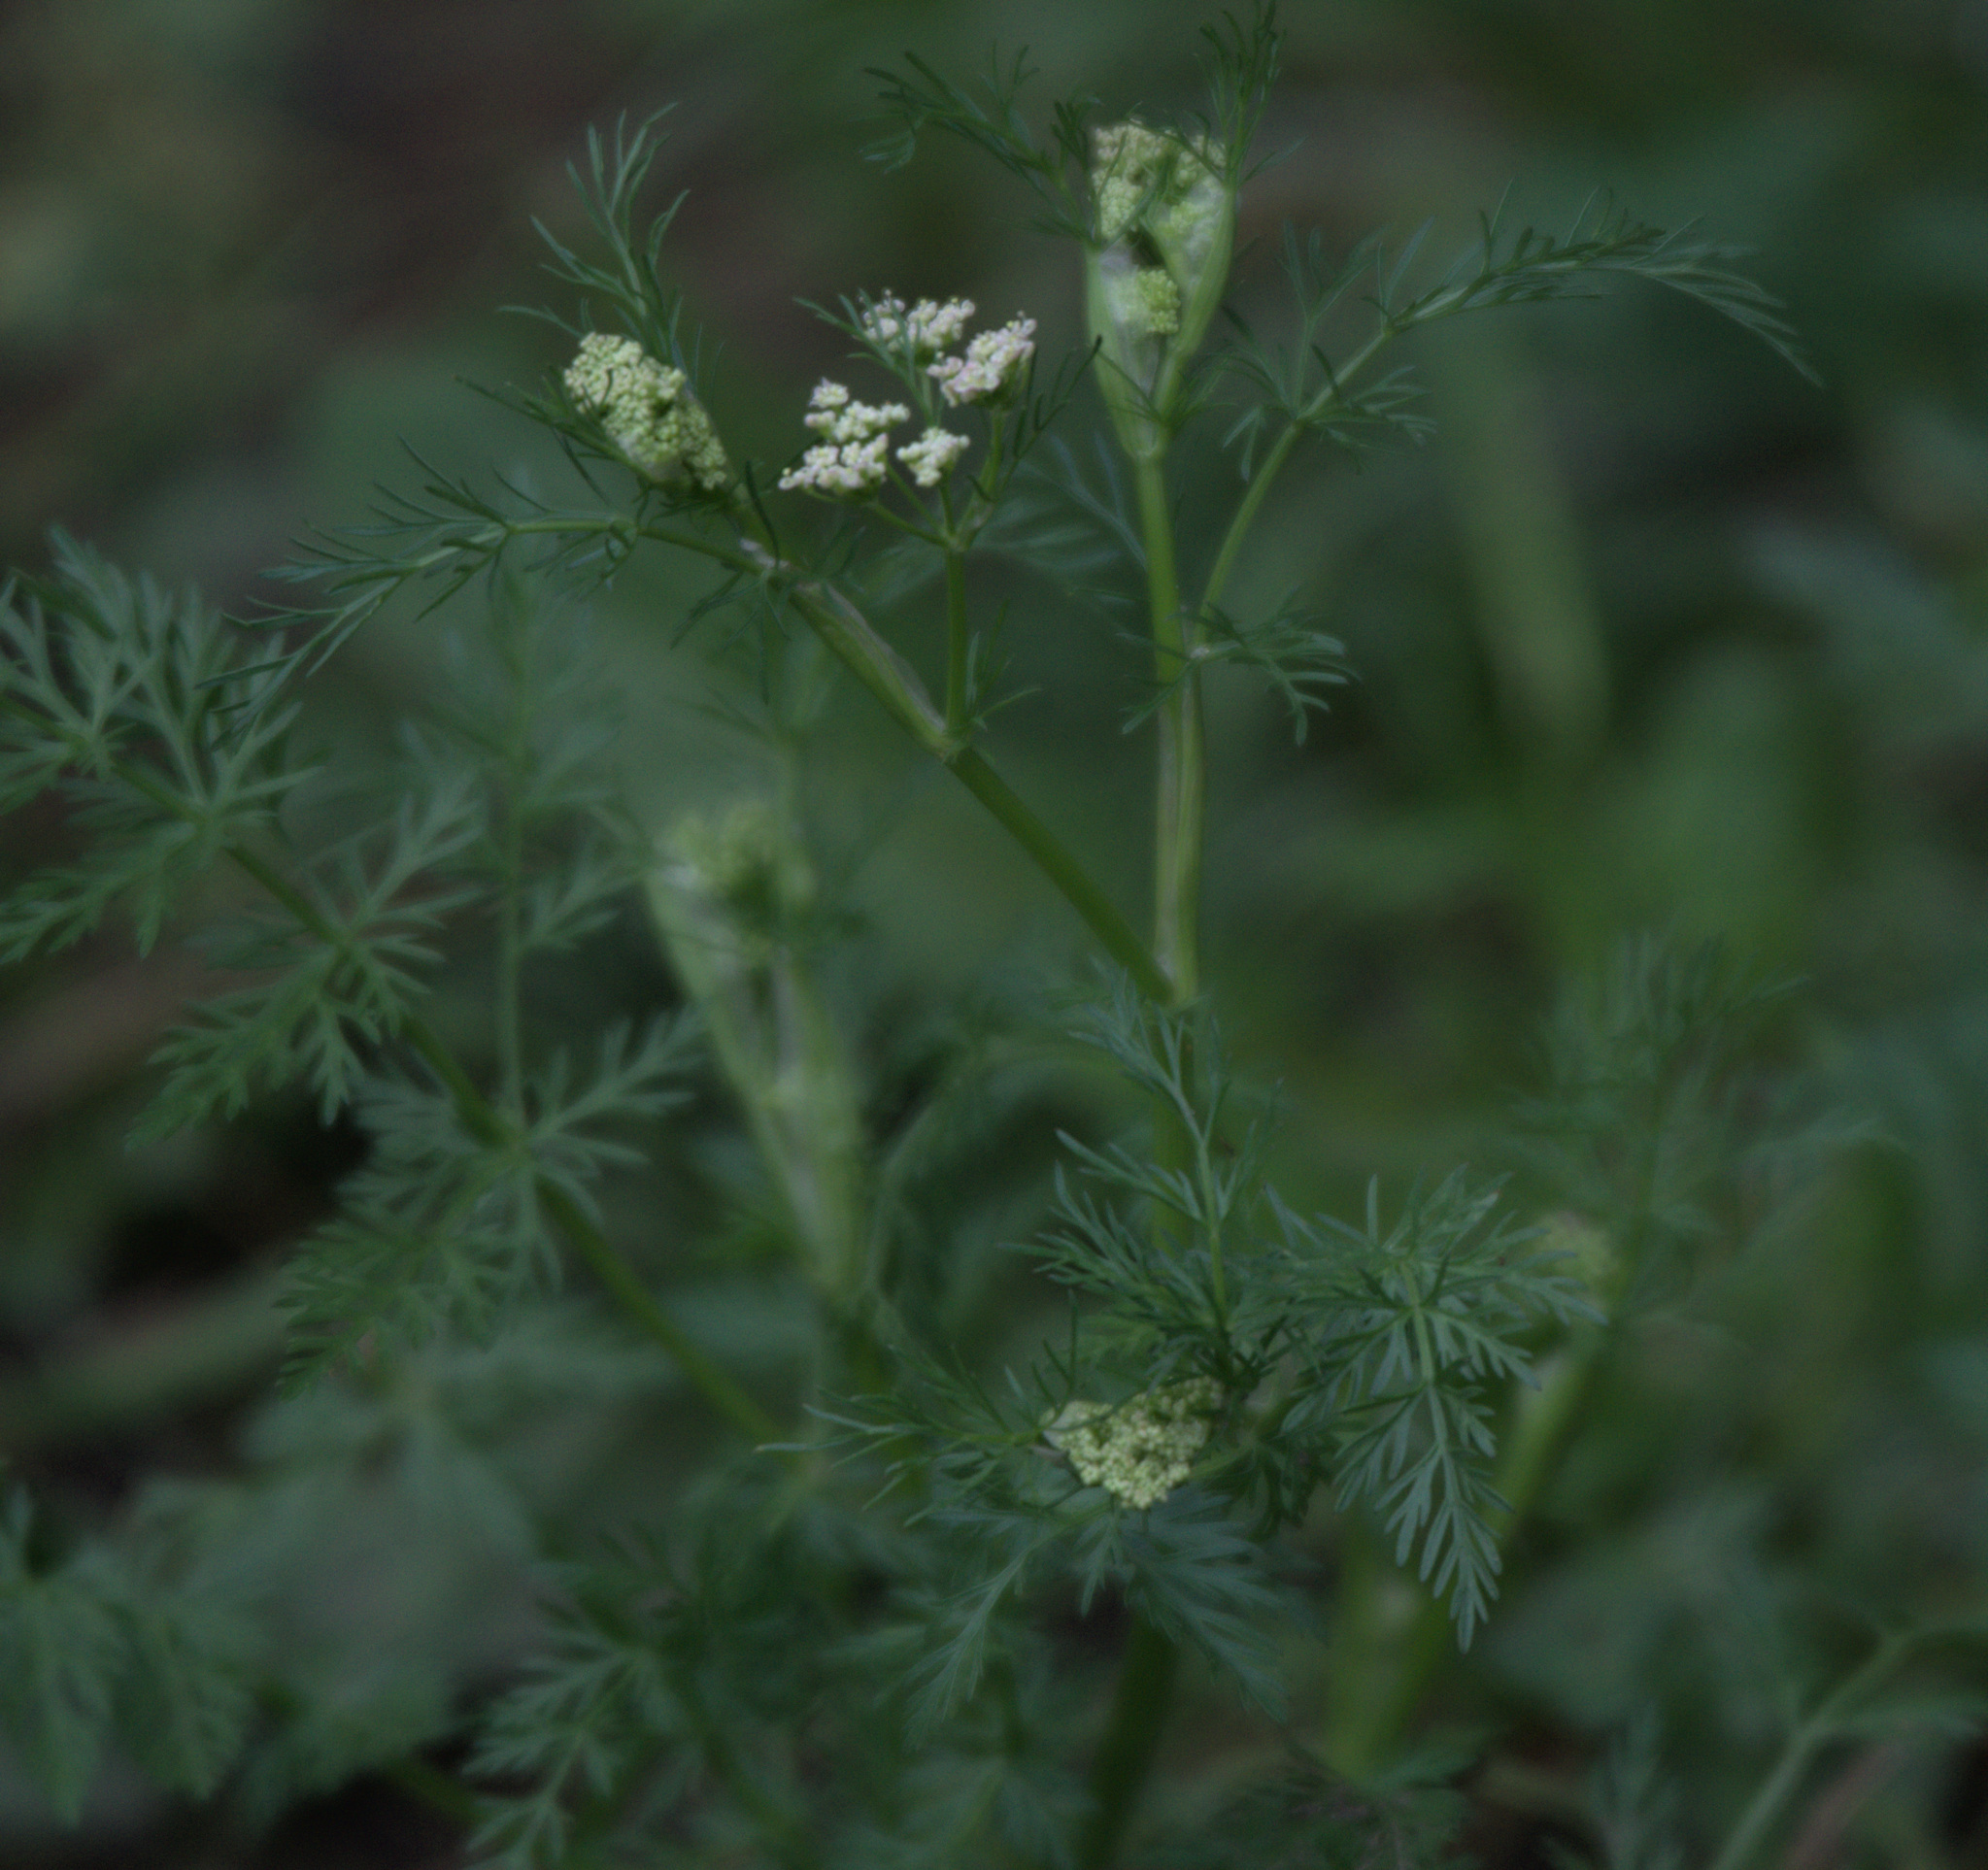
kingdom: Plantae
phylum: Tracheophyta
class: Magnoliopsida
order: Apiales
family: Apiaceae
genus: Carum
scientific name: Carum carvi
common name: Caraway
